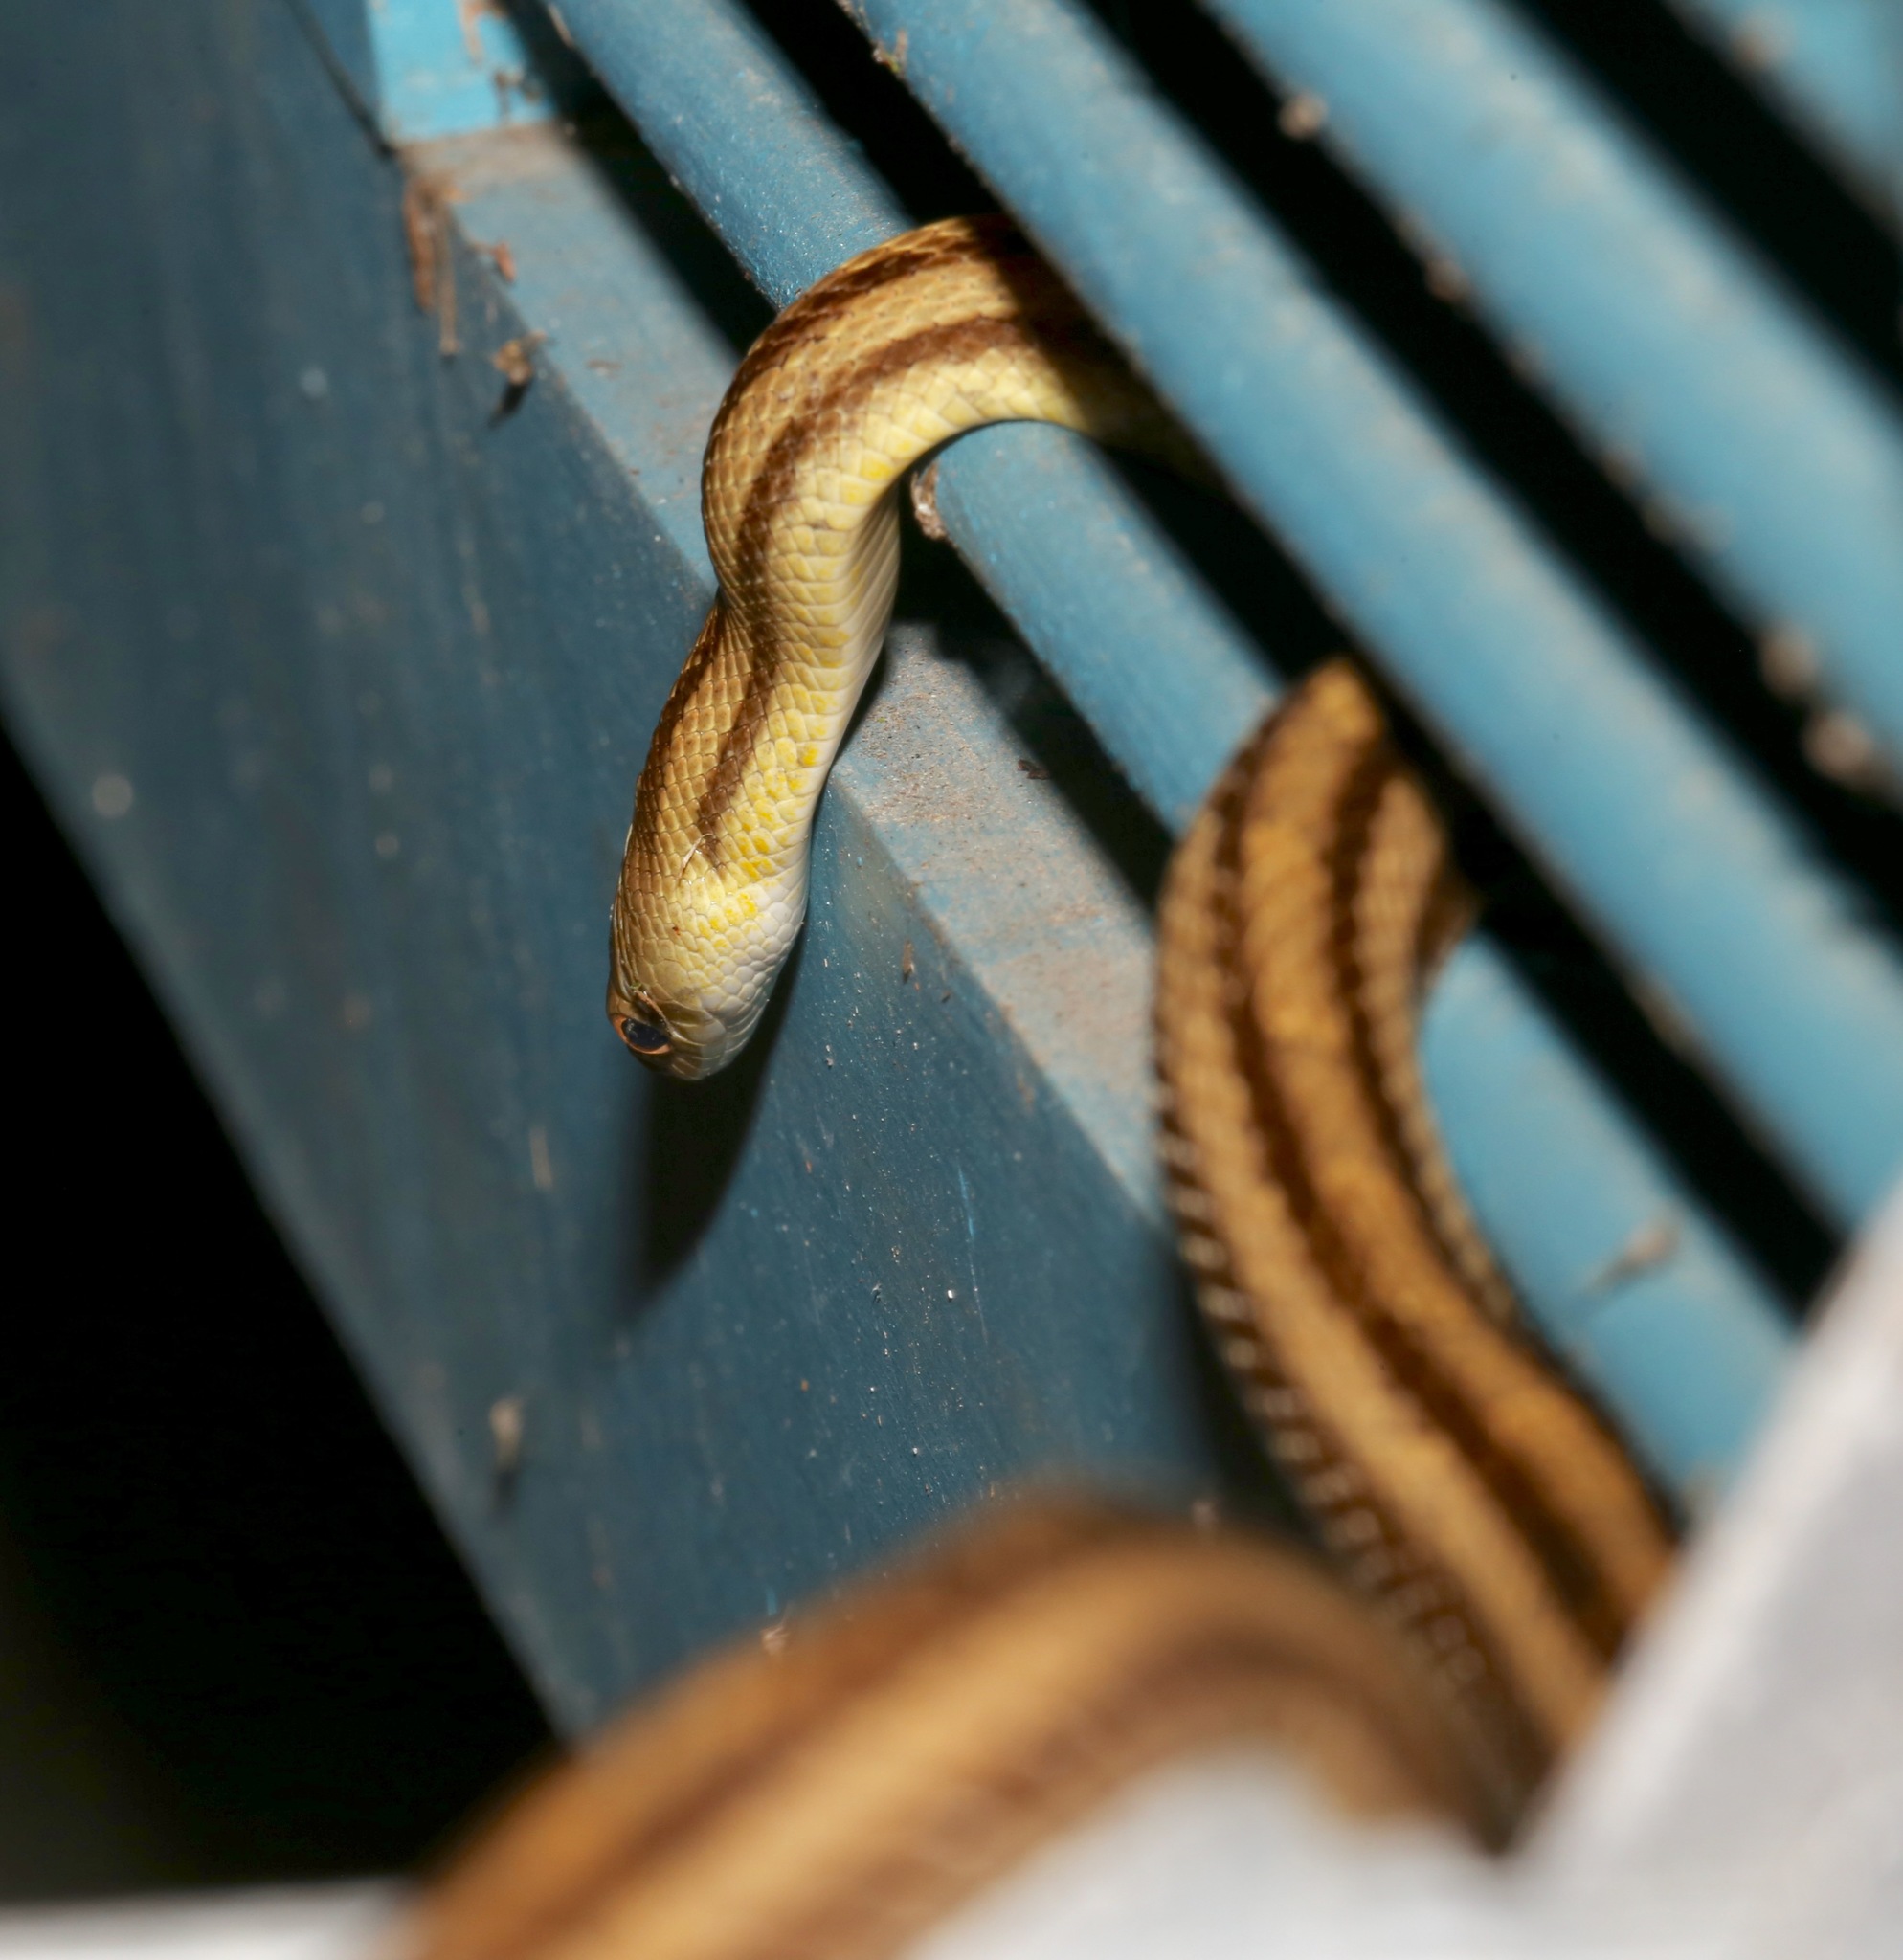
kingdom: Animalia
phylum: Chordata
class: Squamata
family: Colubridae
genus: Pantherophis
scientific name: Pantherophis alleghaniensis
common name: Eastern rat snake
